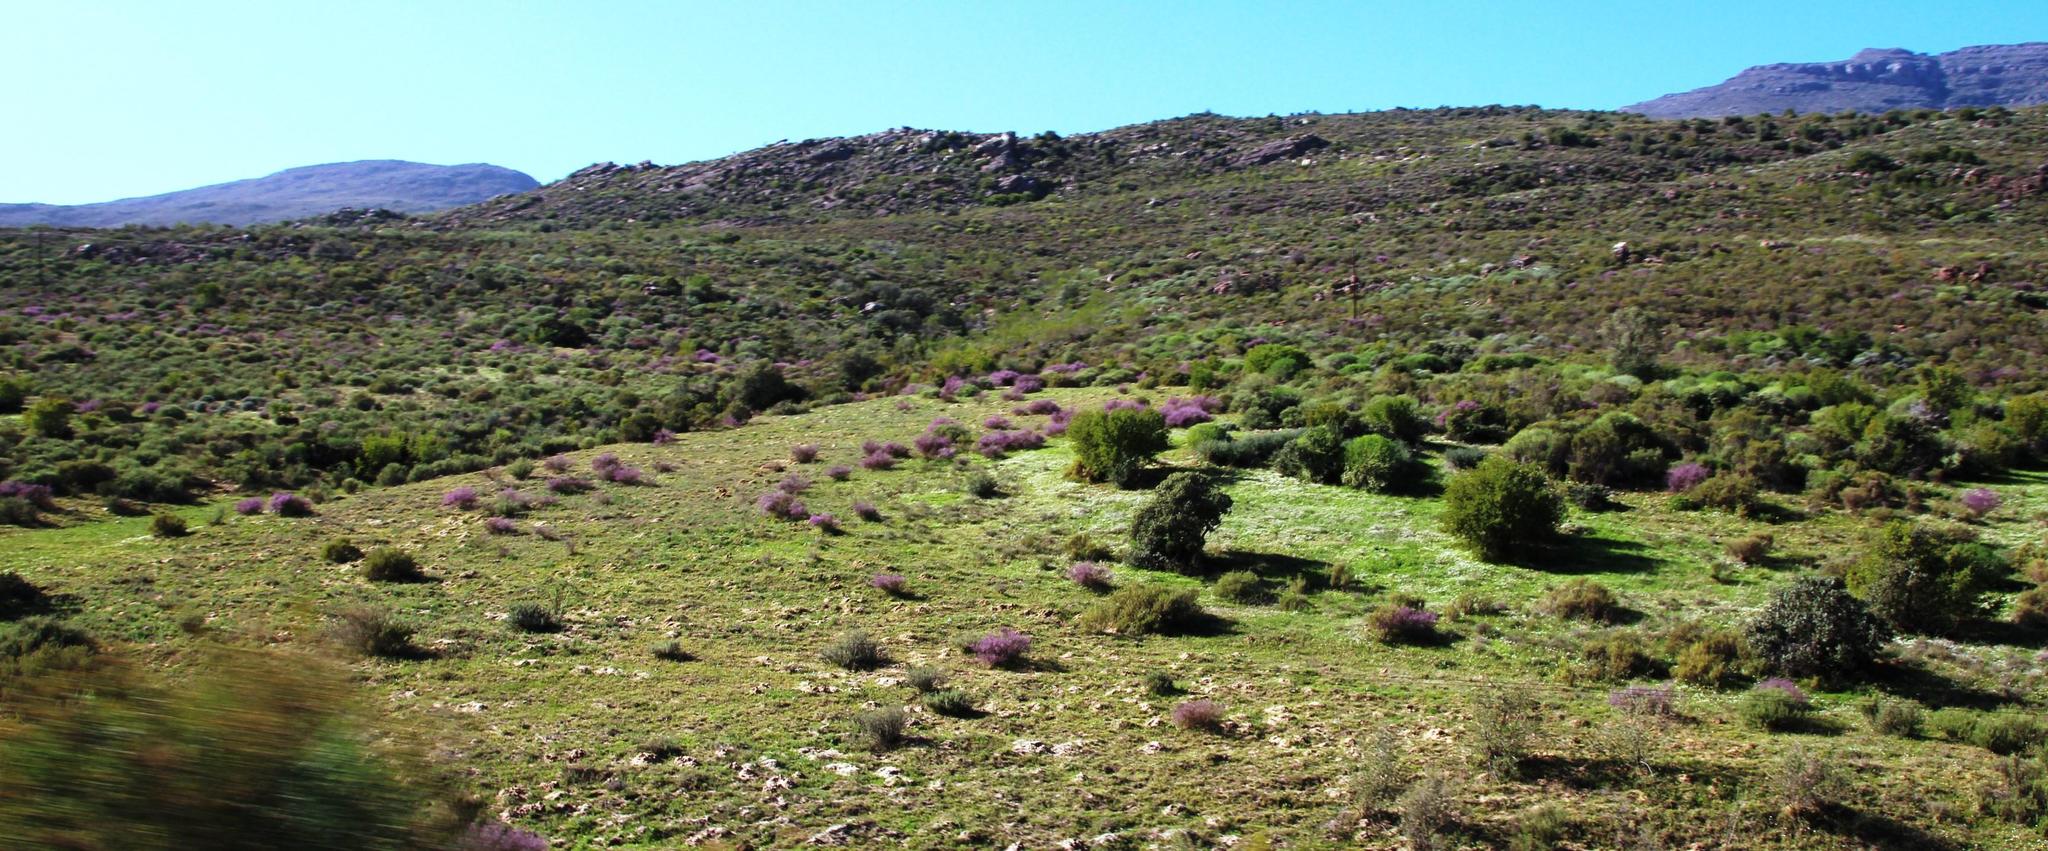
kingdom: Plantae
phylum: Tracheophyta
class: Magnoliopsida
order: Fabales
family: Polygalaceae
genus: Muraltia
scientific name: Muraltia spinosa
